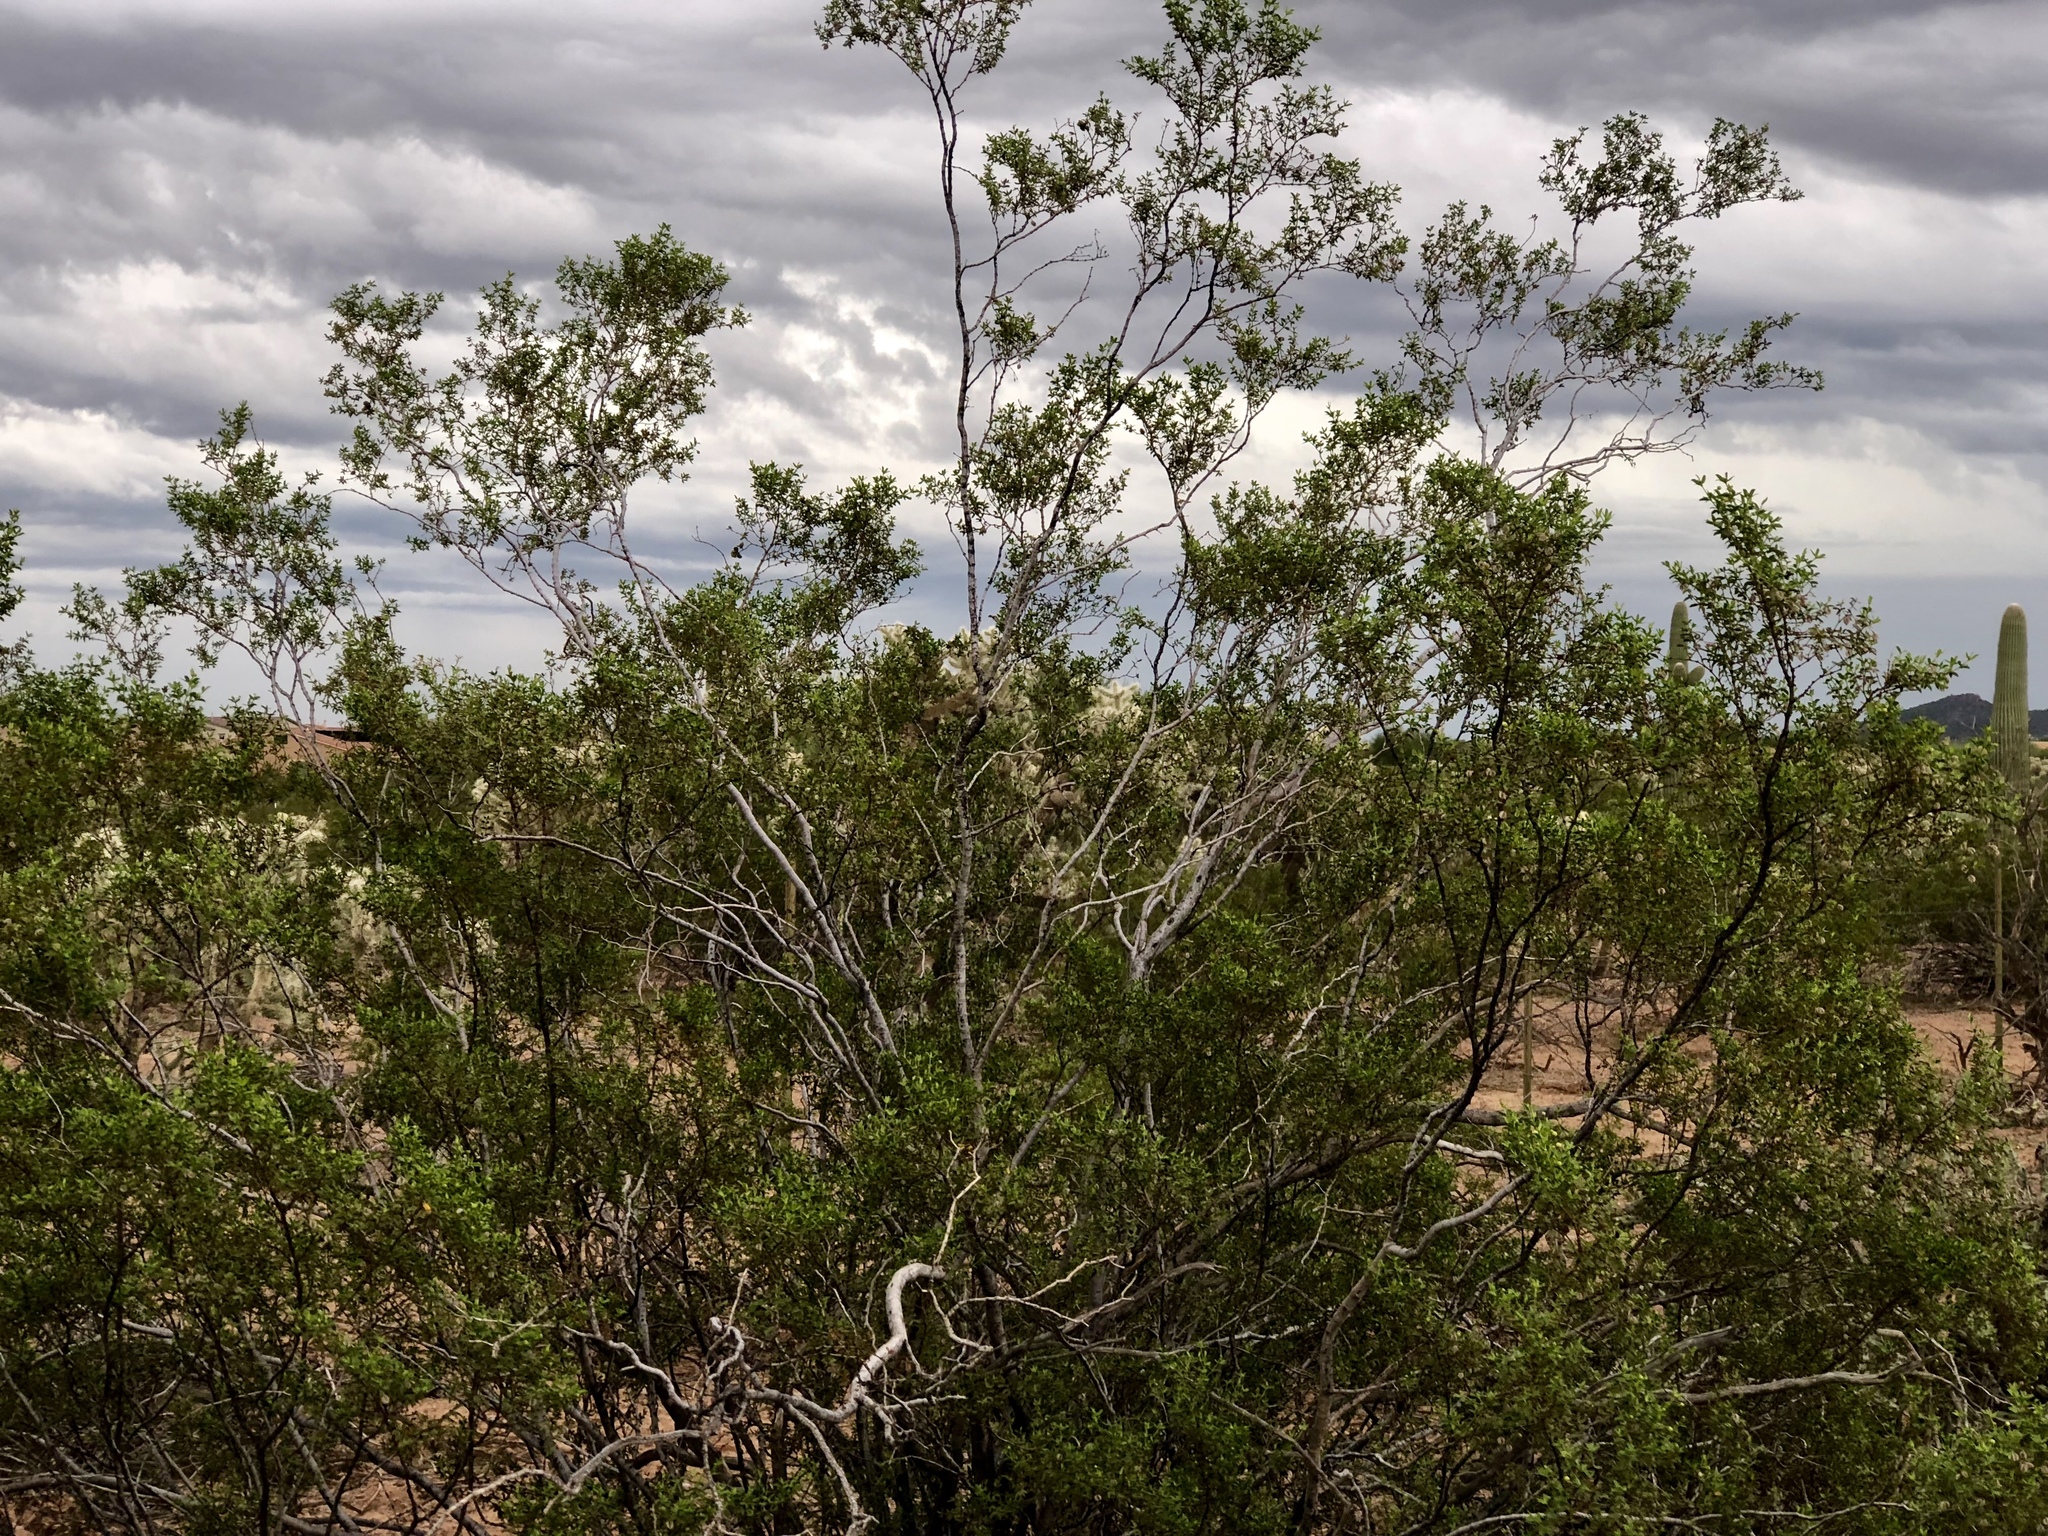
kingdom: Plantae
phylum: Tracheophyta
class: Magnoliopsida
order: Zygophyllales
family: Zygophyllaceae
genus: Larrea
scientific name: Larrea tridentata
